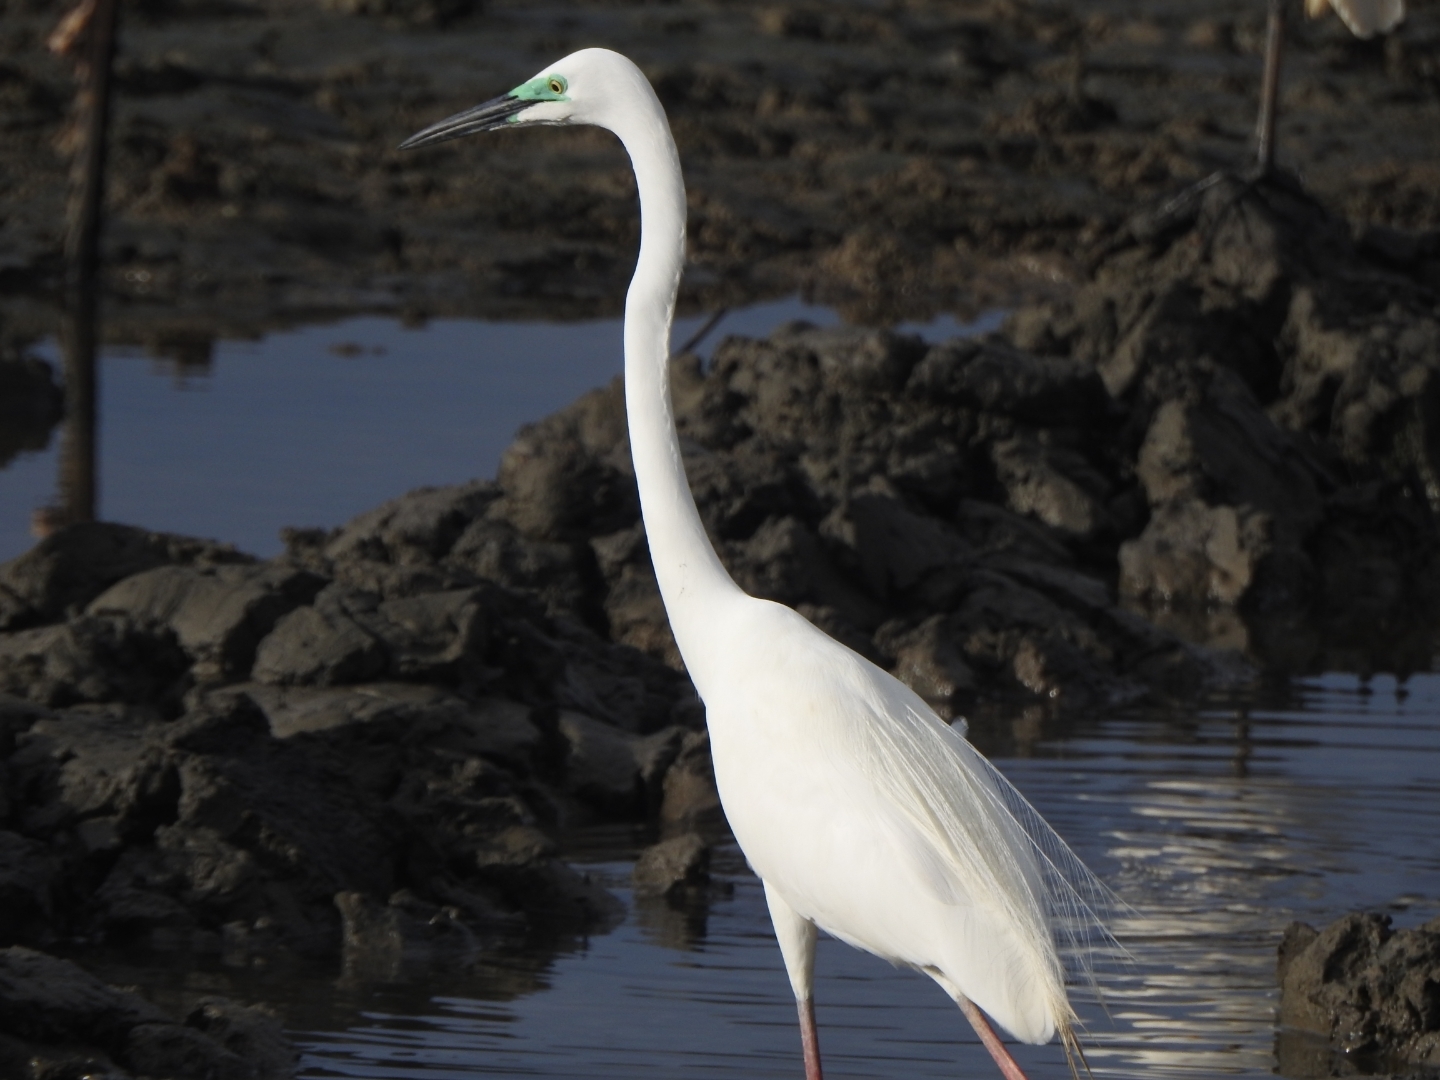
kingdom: Animalia
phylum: Chordata
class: Aves
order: Pelecaniformes
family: Ardeidae
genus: Ardea
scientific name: Ardea alba
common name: Great egret
